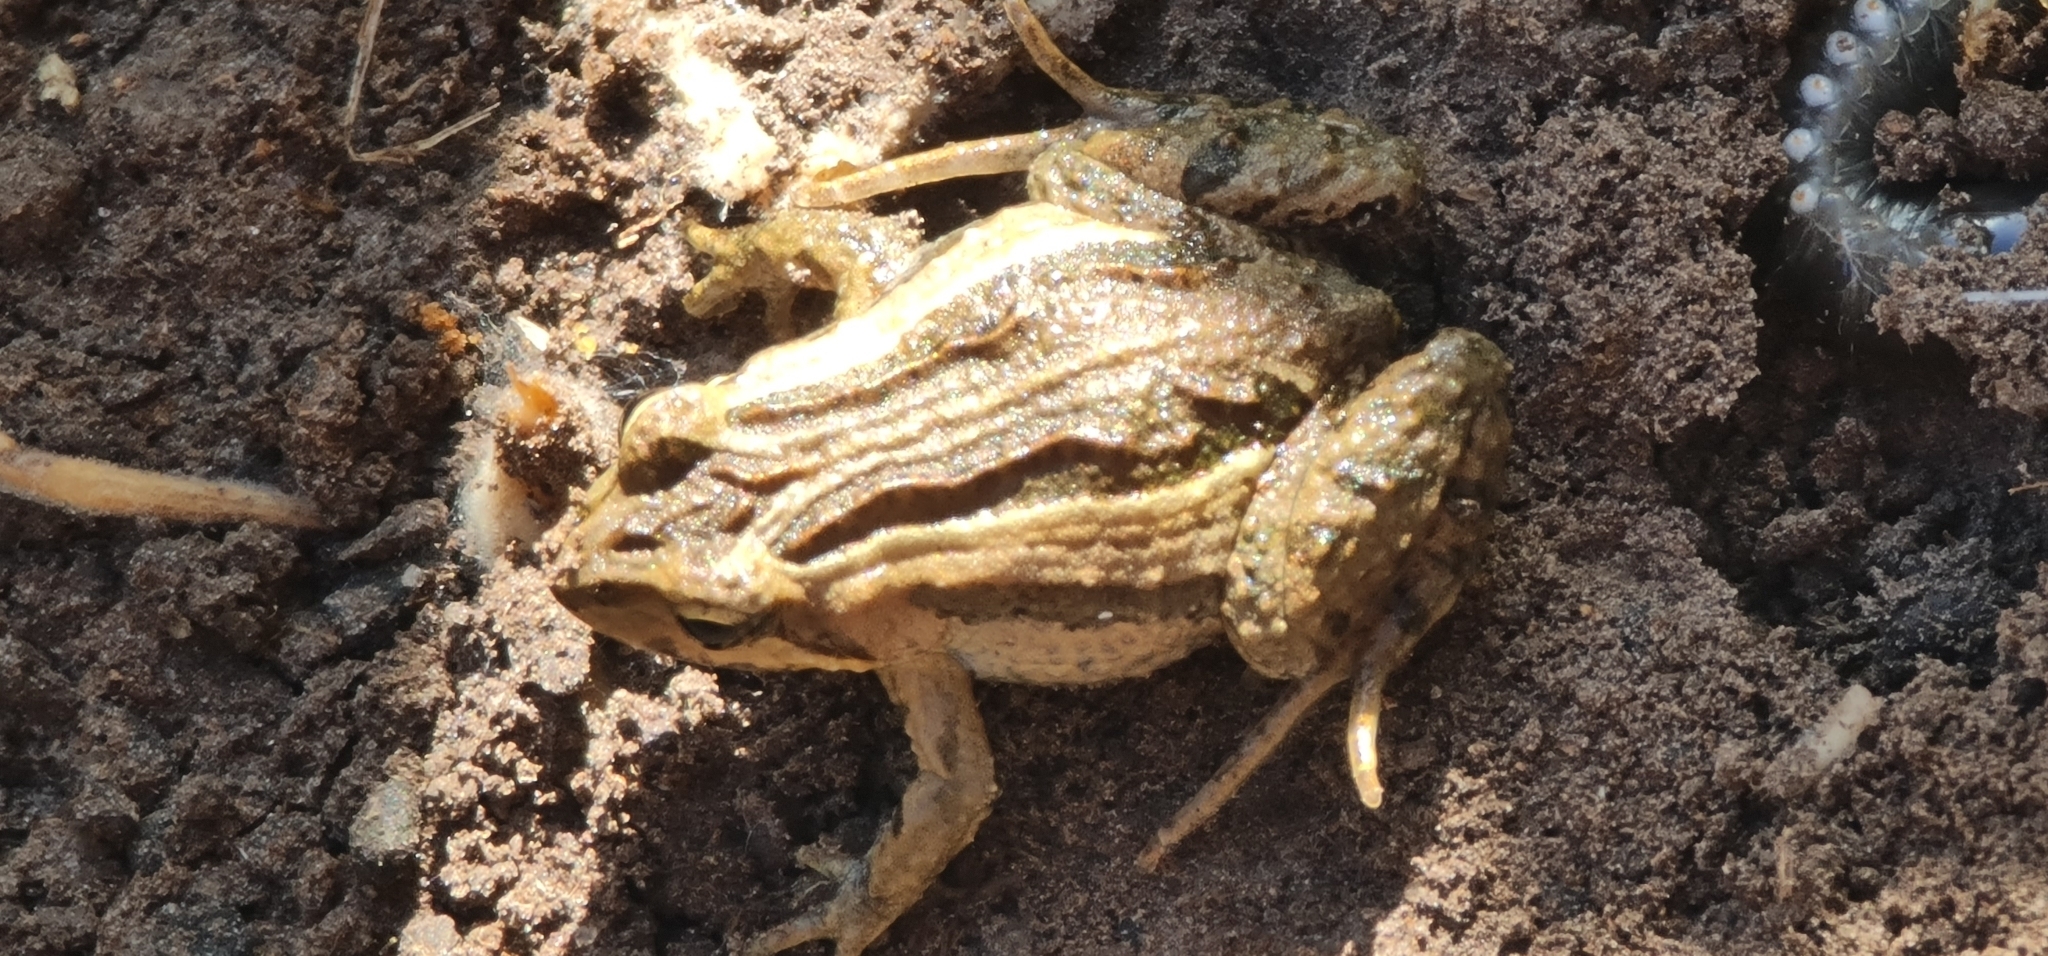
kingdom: Animalia
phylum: Chordata
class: Amphibia
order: Anura
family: Myobatrachidae
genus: Crinia
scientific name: Crinia signifera
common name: Brown froglet
